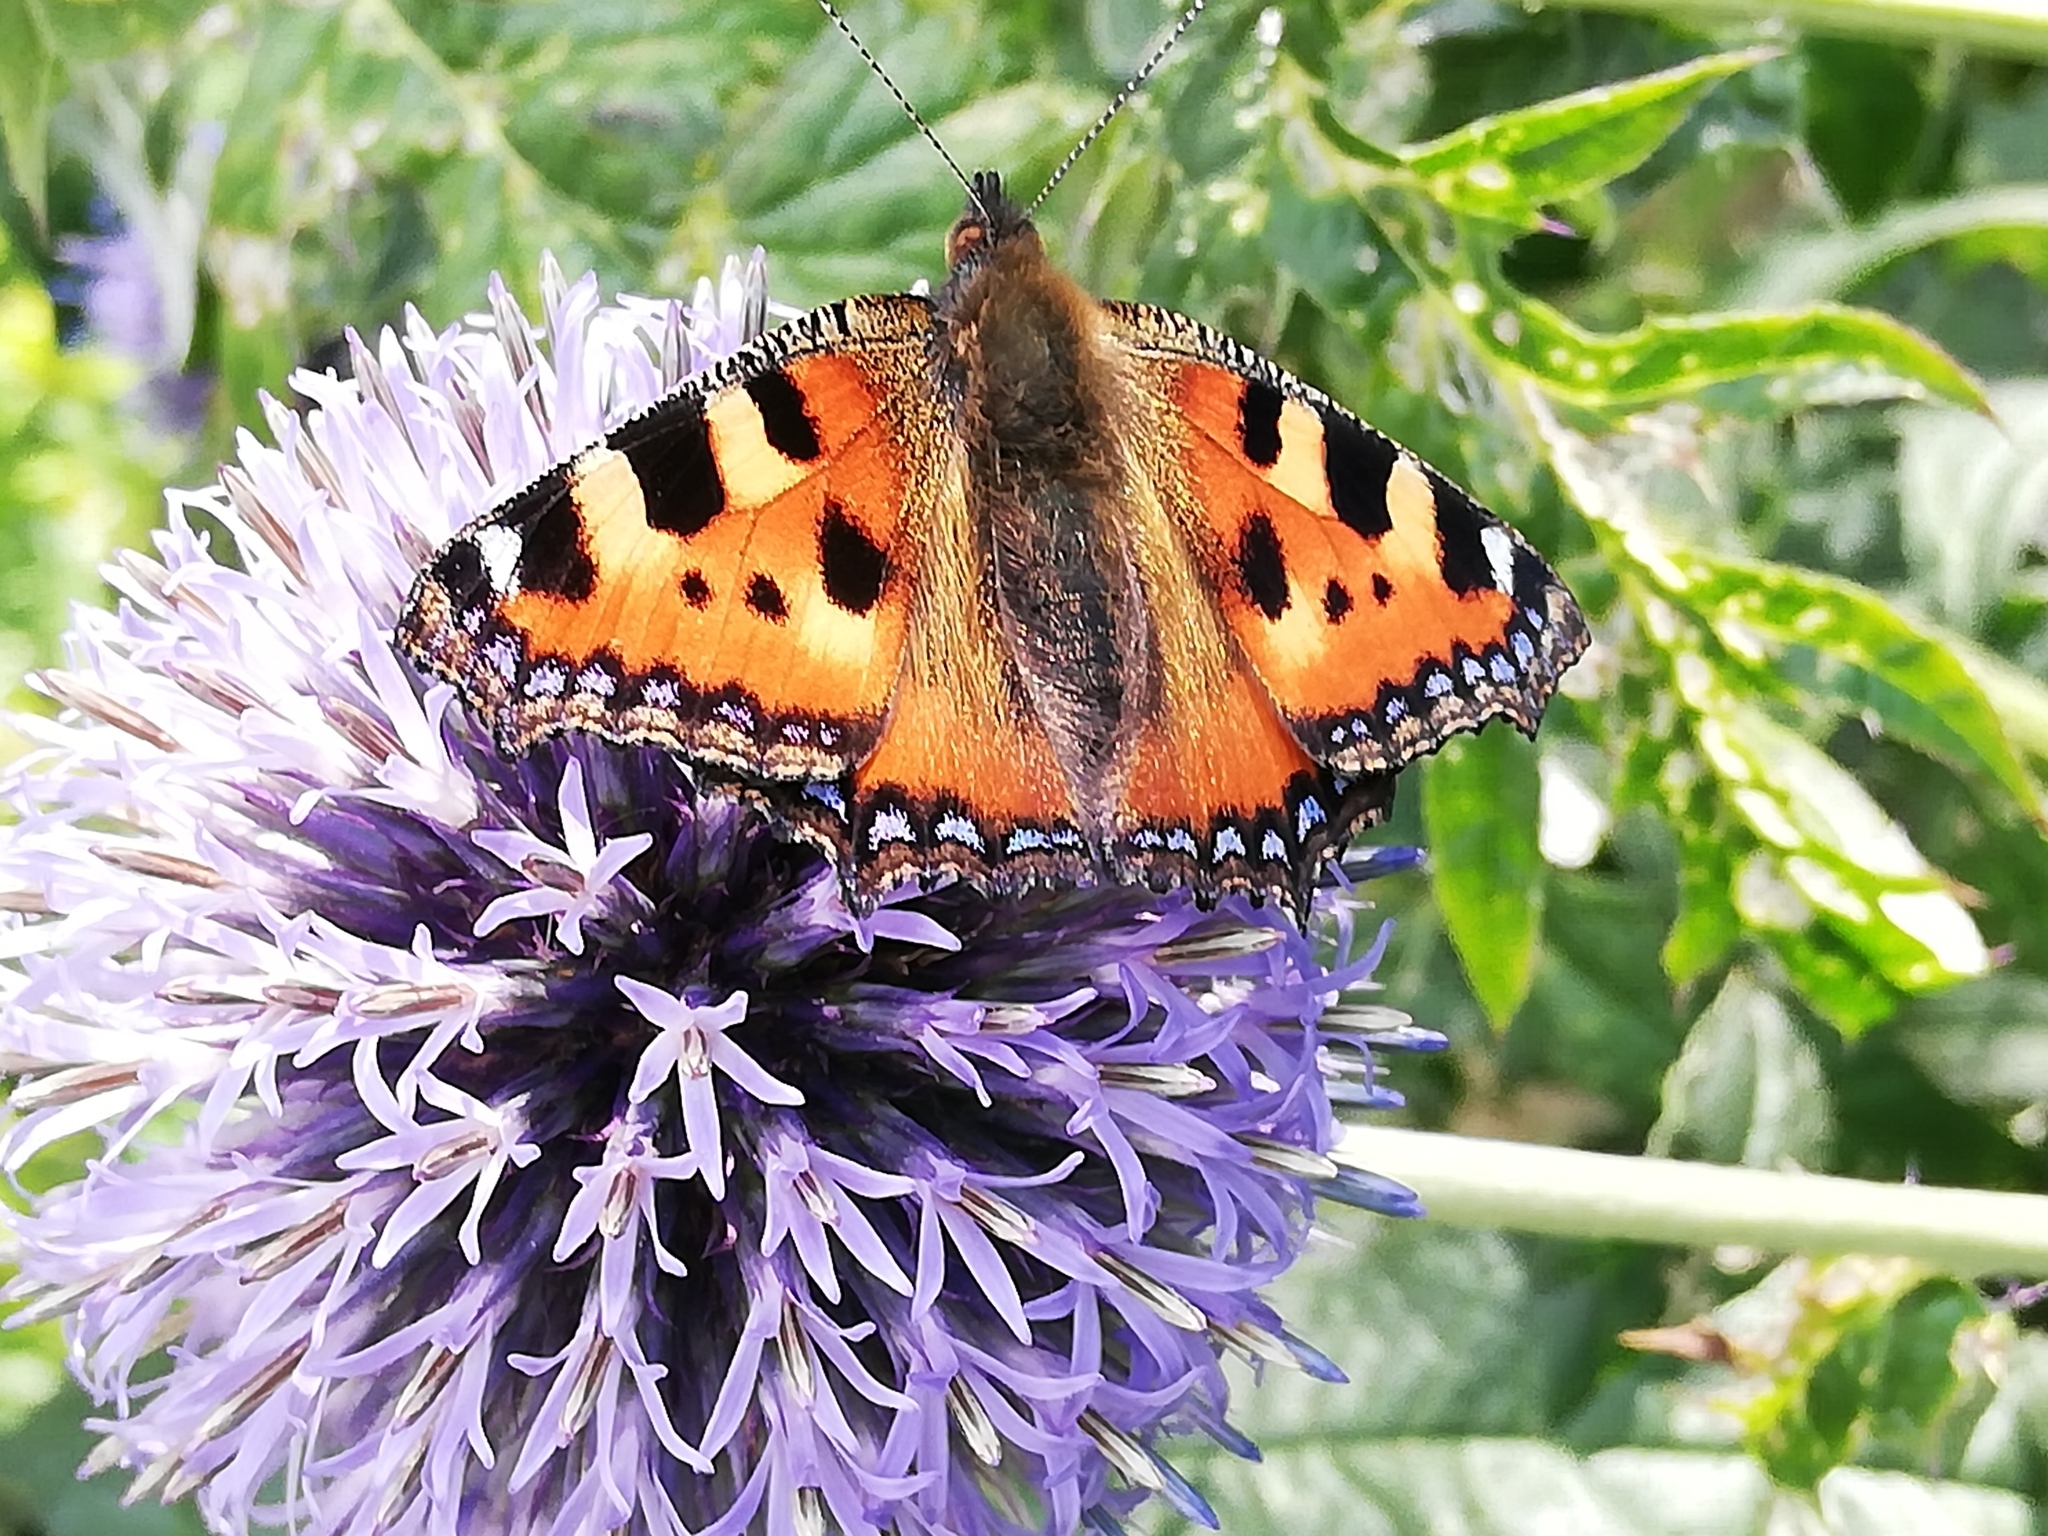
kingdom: Animalia
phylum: Arthropoda
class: Insecta
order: Lepidoptera
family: Nymphalidae
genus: Aglais
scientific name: Aglais urticae
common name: Small tortoiseshell
